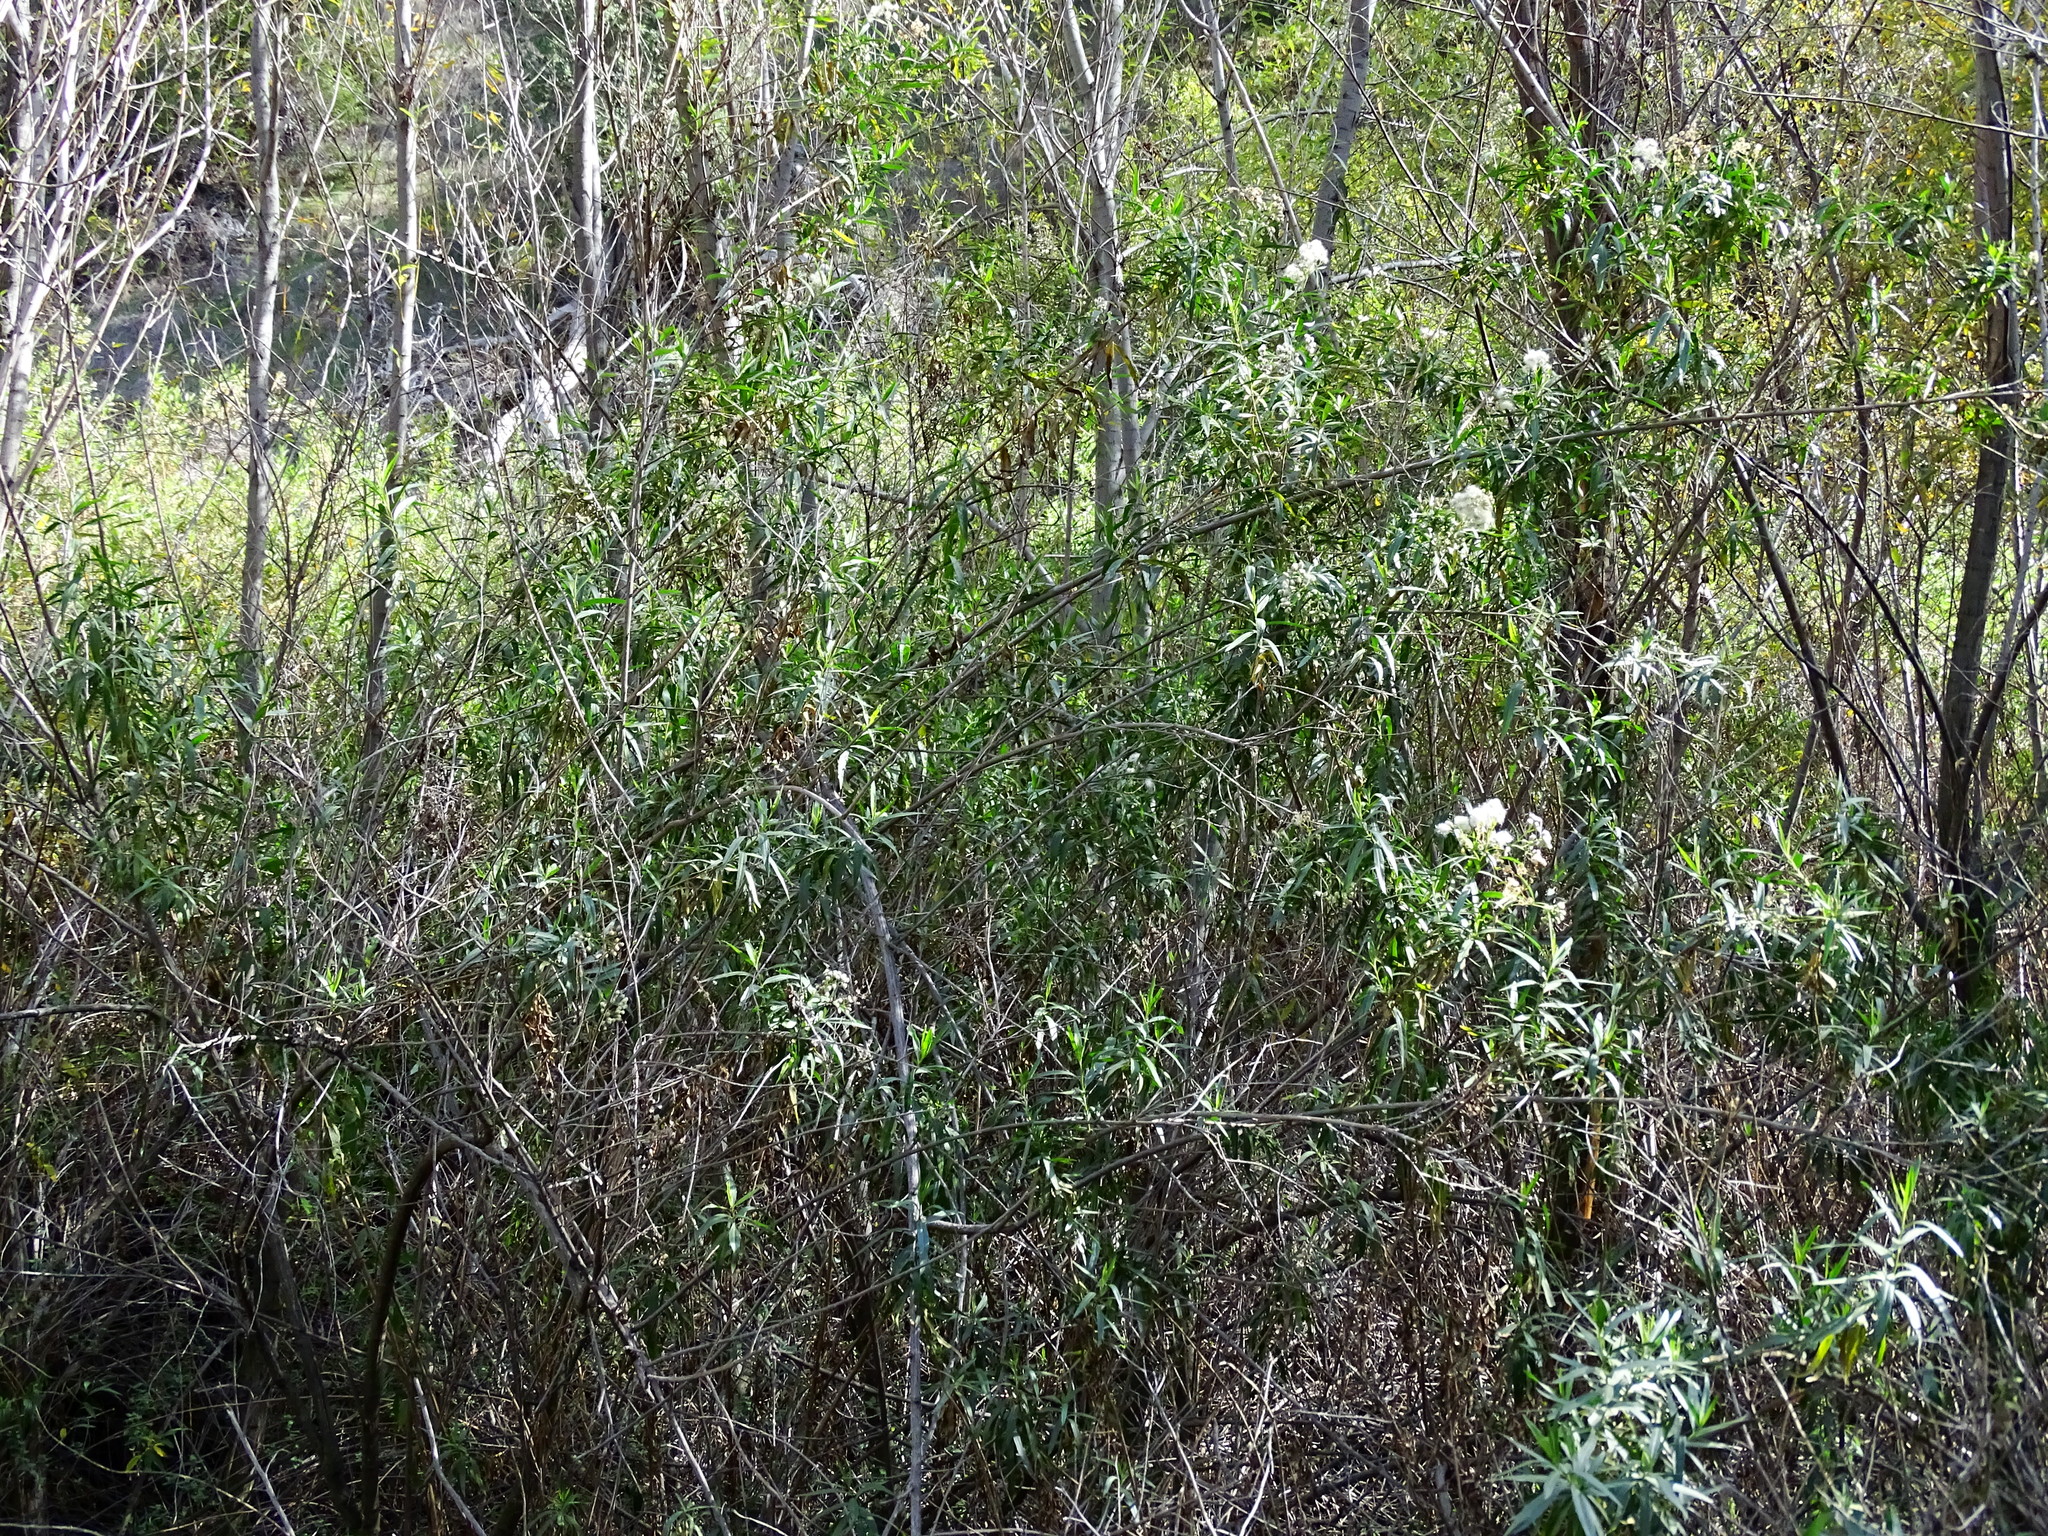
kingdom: Plantae
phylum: Tracheophyta
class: Magnoliopsida
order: Asterales
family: Asteraceae
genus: Baccharis
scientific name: Baccharis salicifolia
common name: Sticky baccharis
